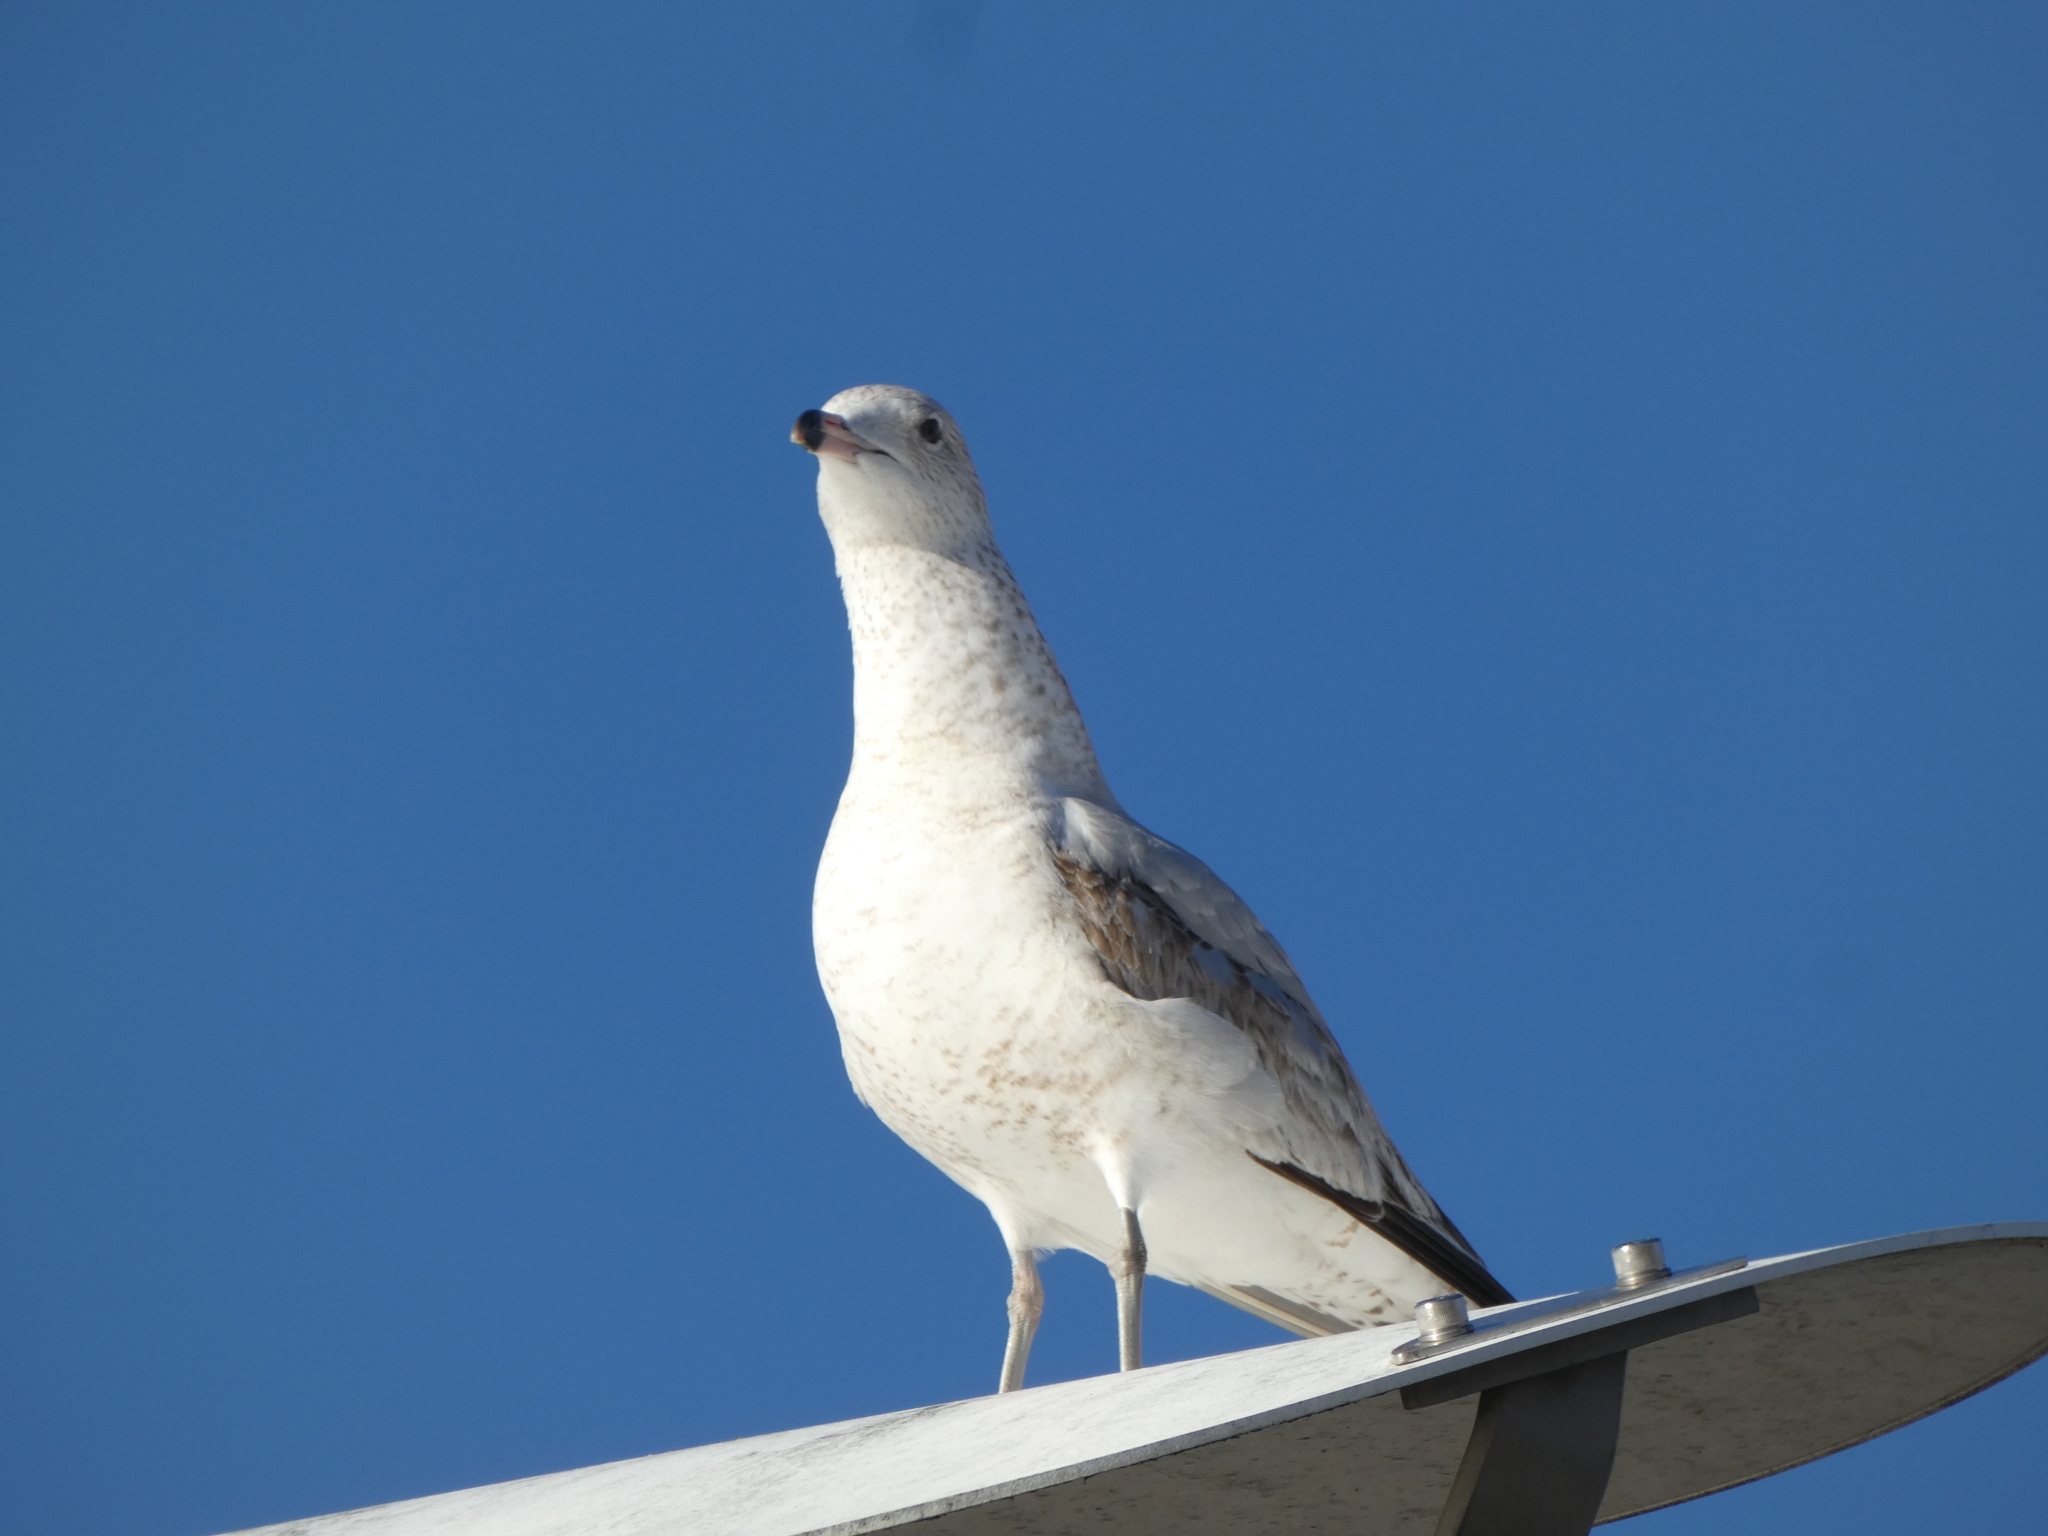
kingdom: Animalia
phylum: Chordata
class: Aves
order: Charadriiformes
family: Laridae
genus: Larus
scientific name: Larus delawarensis
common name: Ring-billed gull
